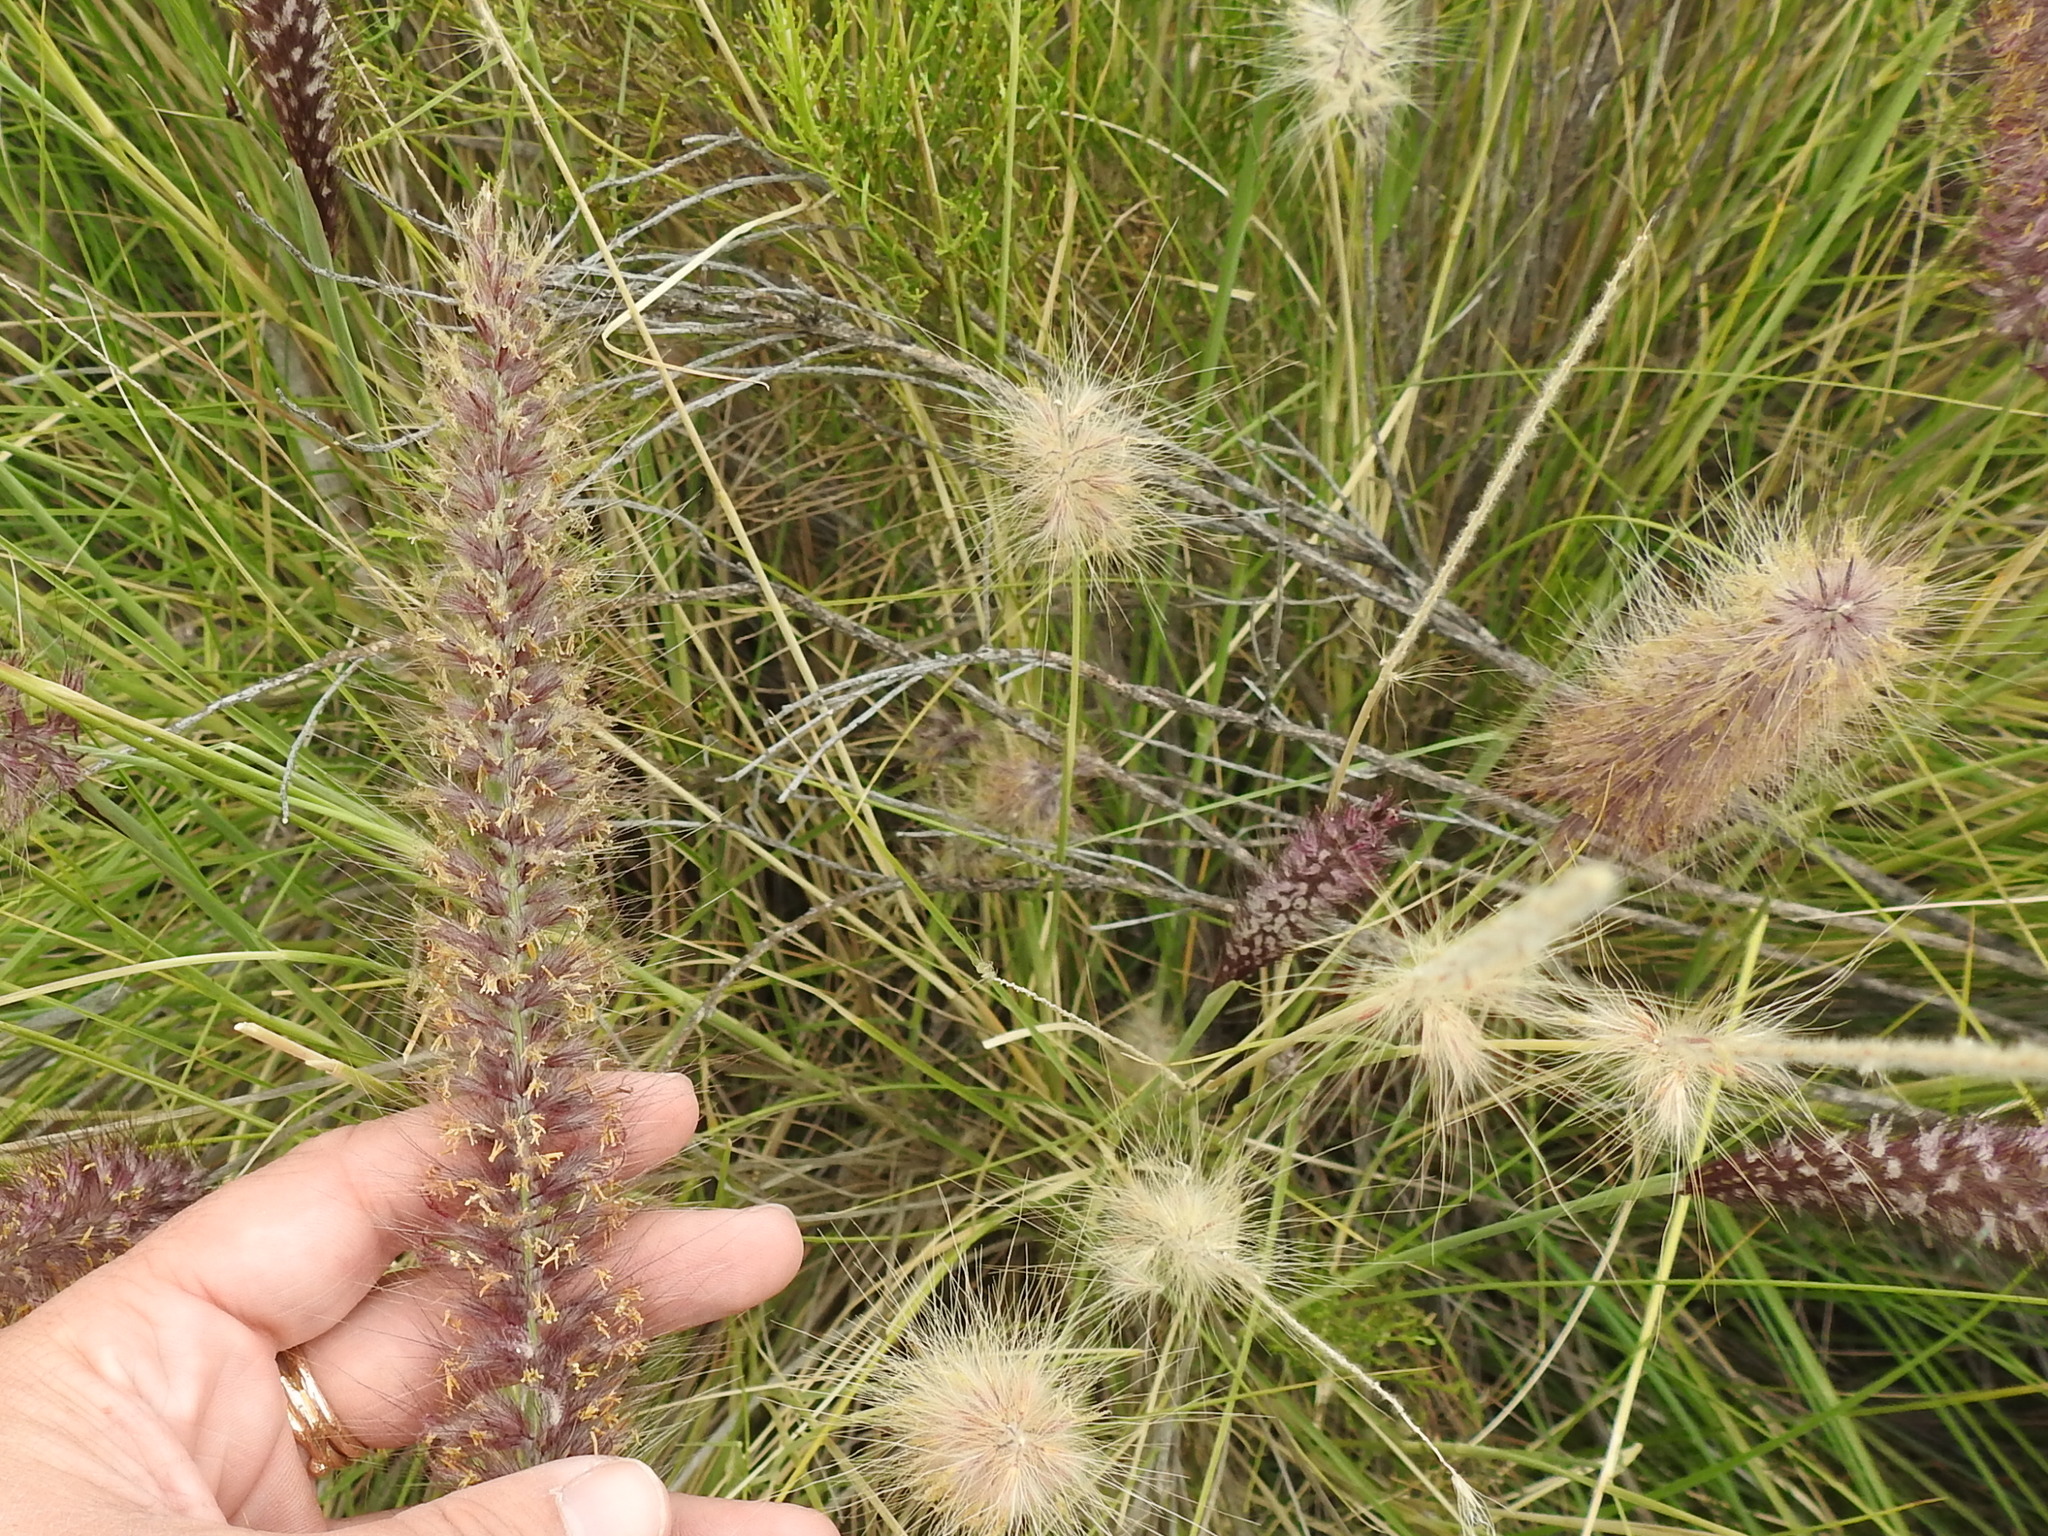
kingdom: Plantae
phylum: Tracheophyta
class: Liliopsida
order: Poales
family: Poaceae
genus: Cenchrus
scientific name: Cenchrus setaceus
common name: Crimson fountaingrass
